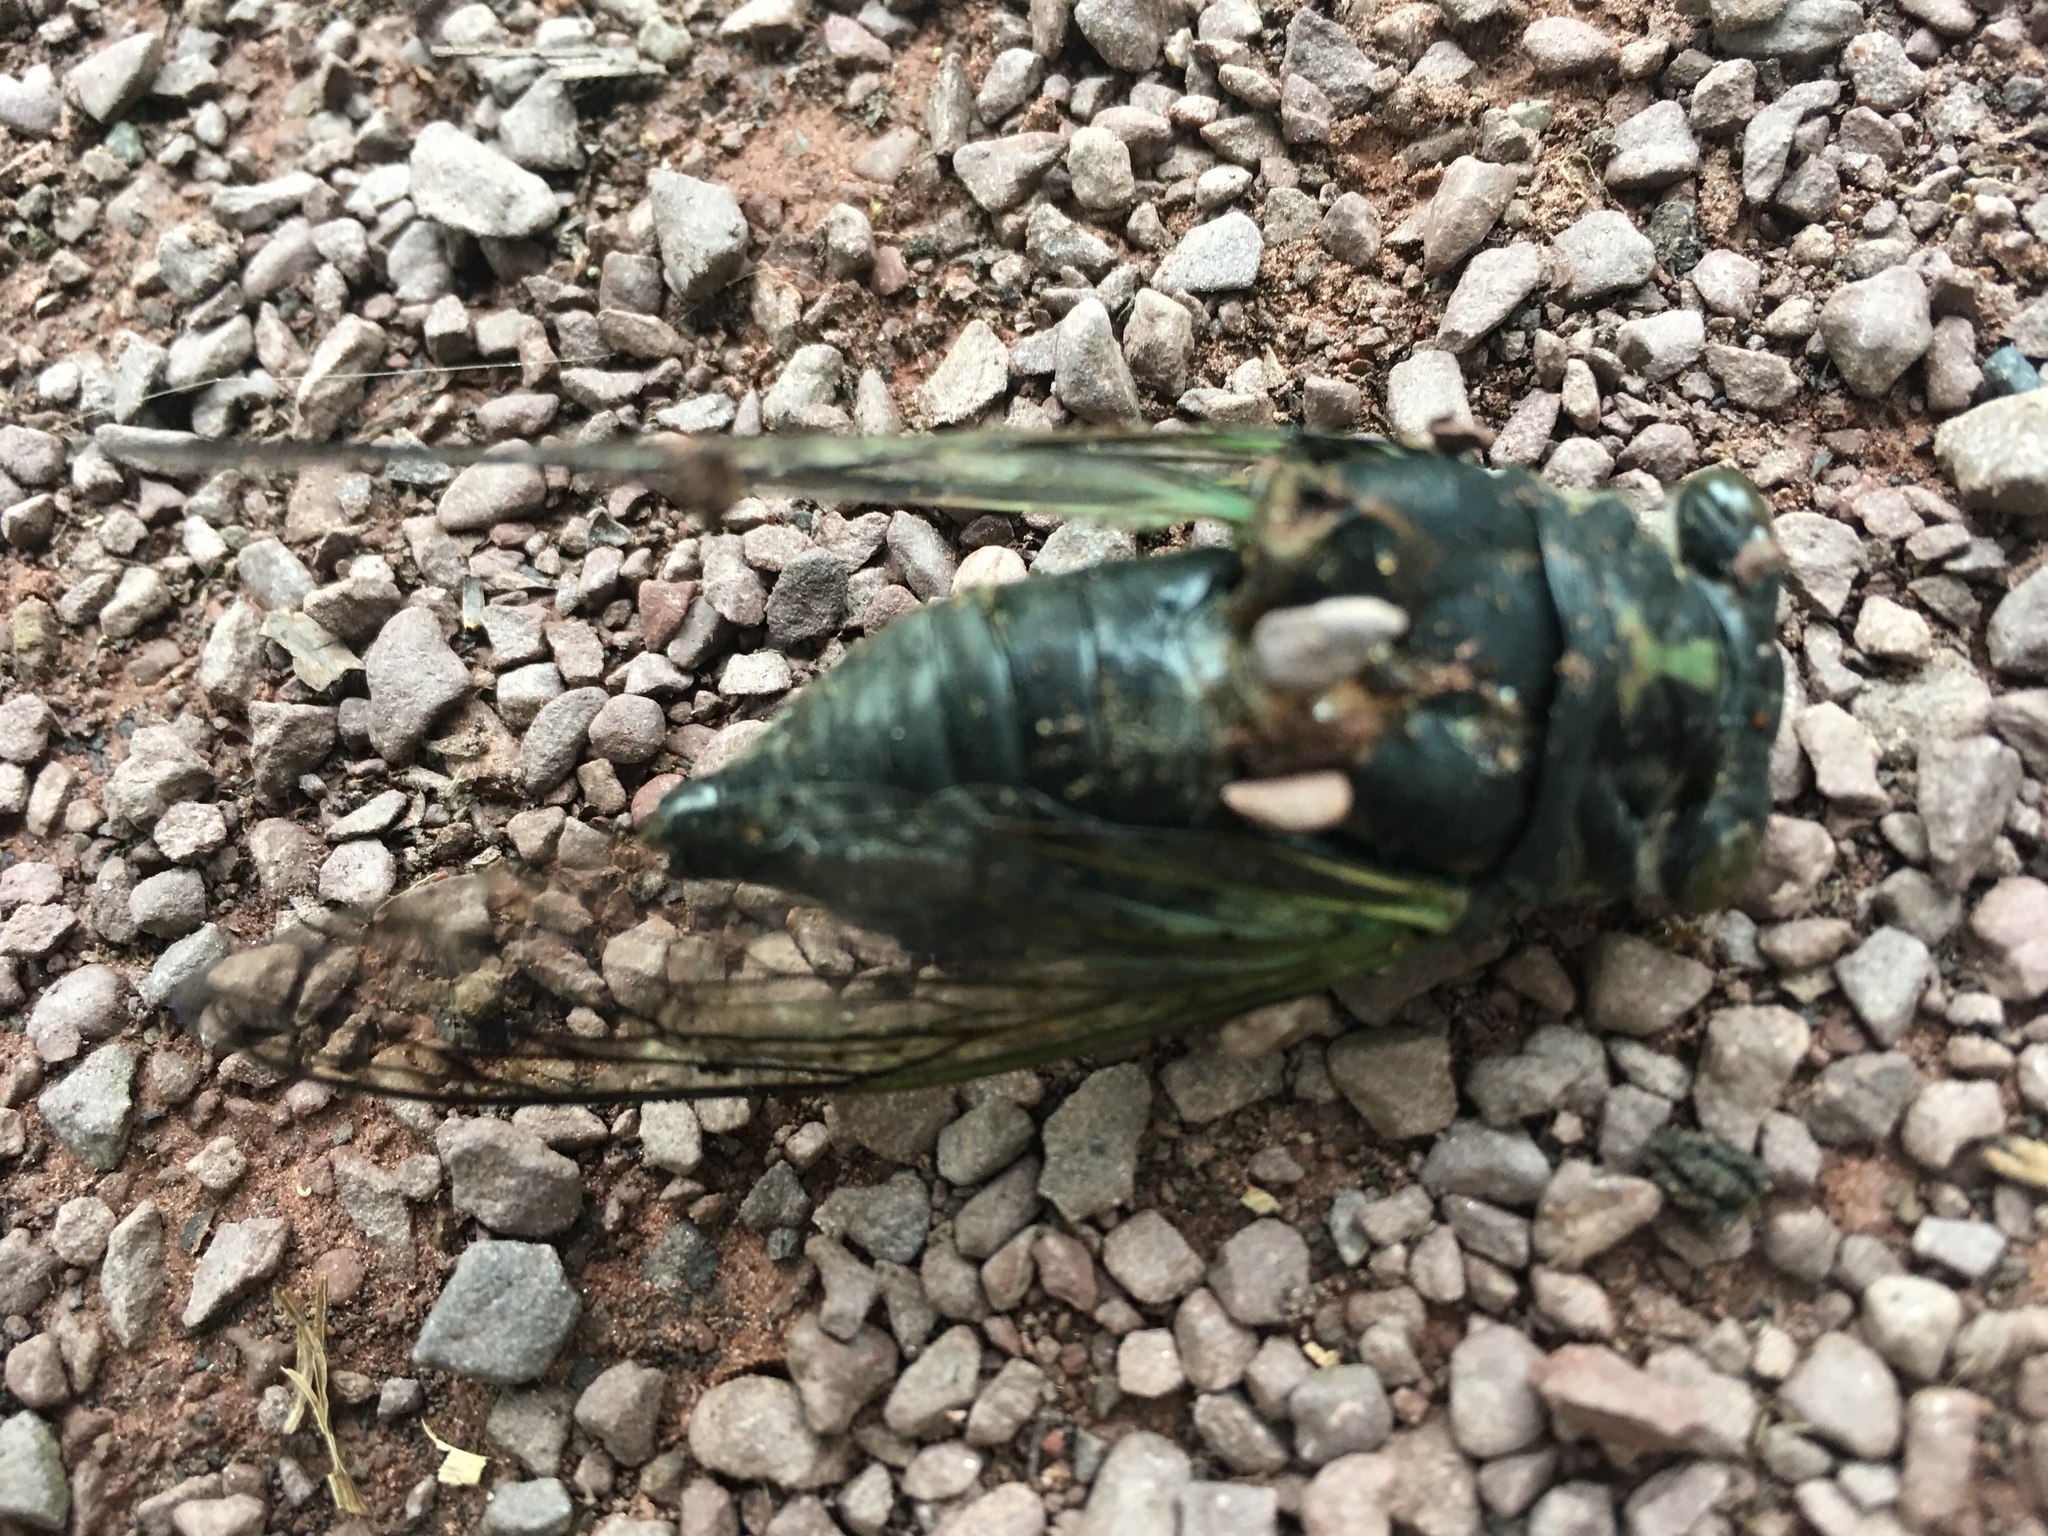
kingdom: Animalia
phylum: Arthropoda
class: Insecta
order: Hemiptera
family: Cicadidae
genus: Neotibicen
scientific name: Neotibicen lyricen
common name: Lyric cicada
